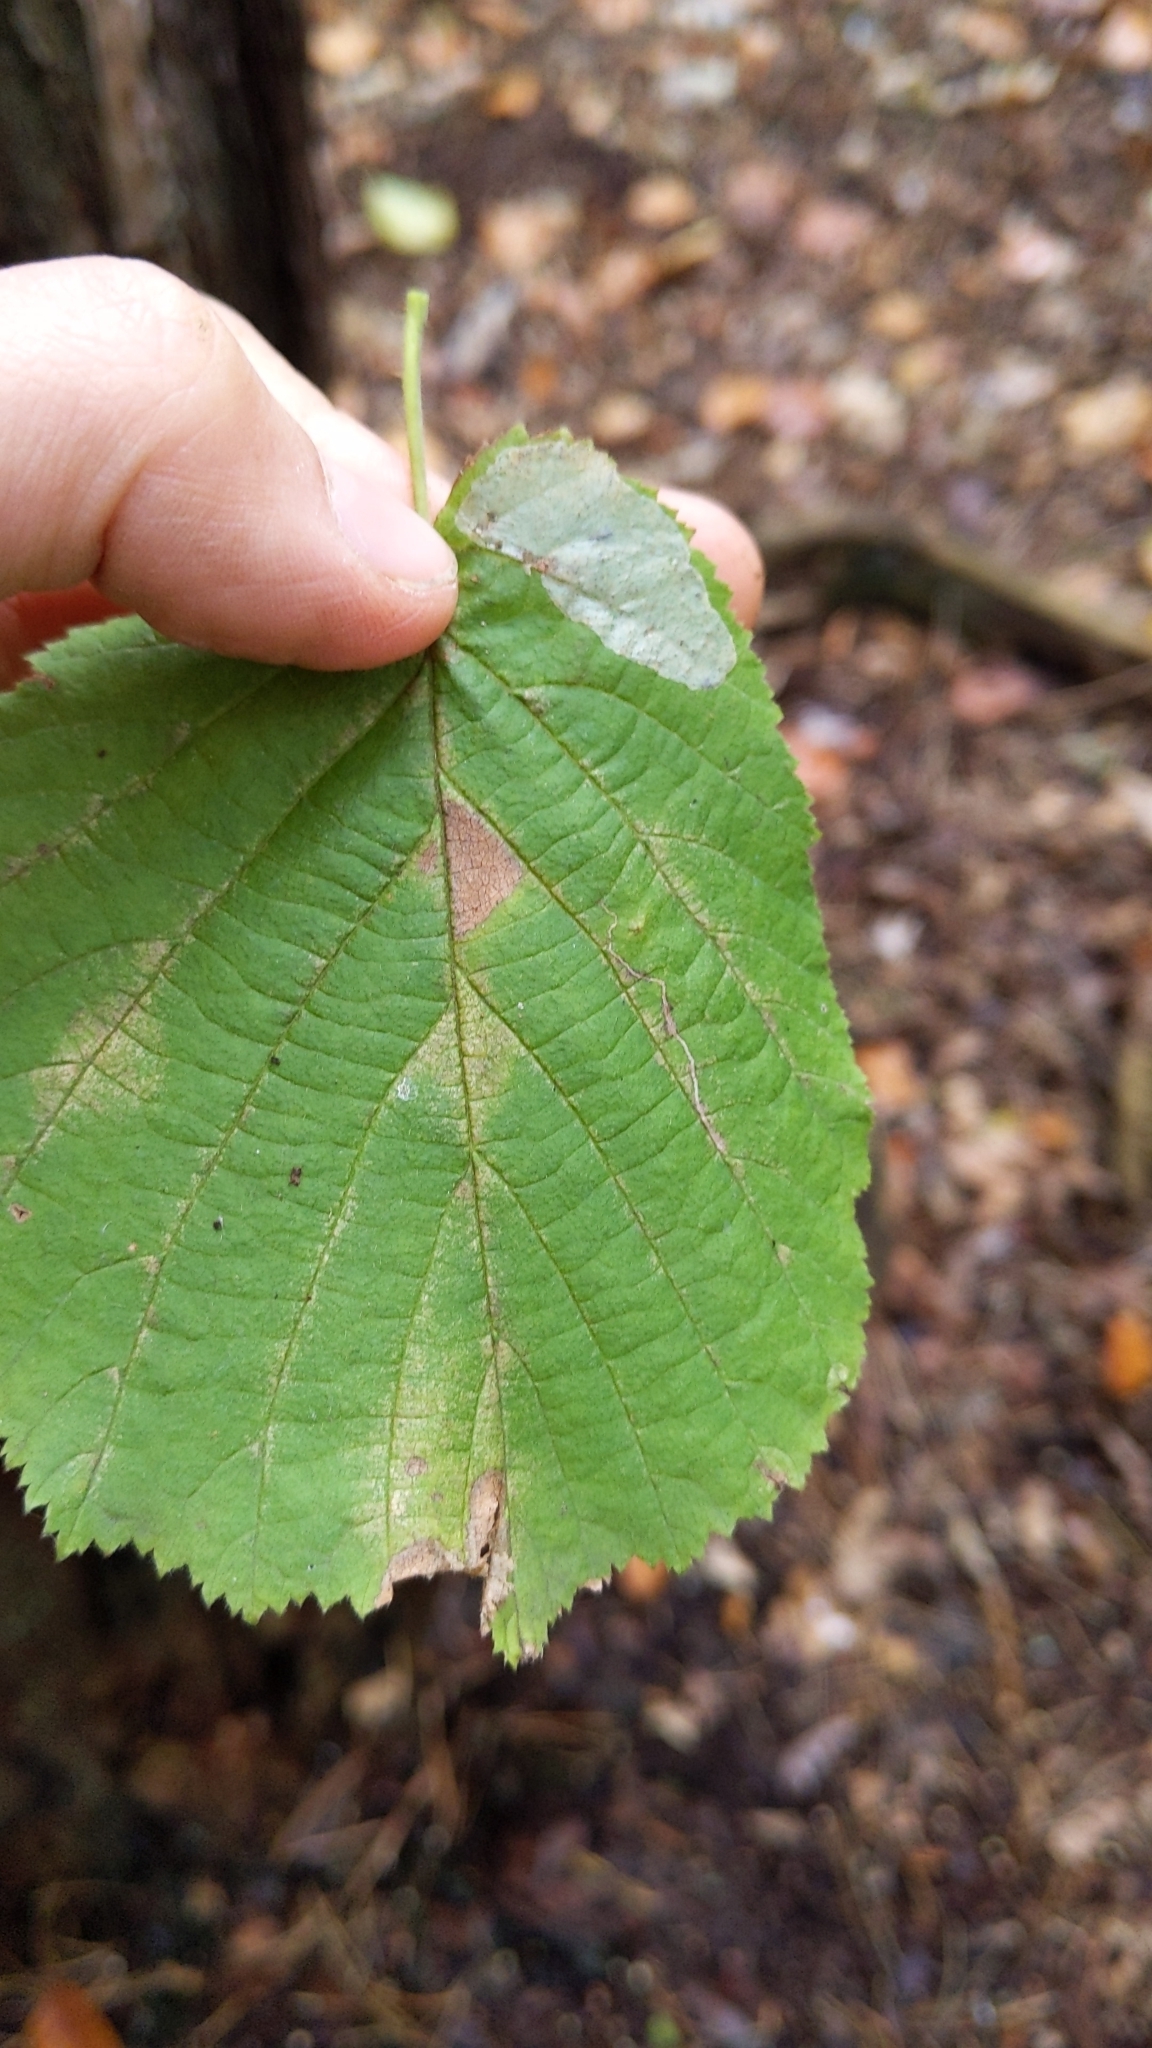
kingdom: Plantae
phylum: Tracheophyta
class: Magnoliopsida
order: Fagales
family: Betulaceae
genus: Corylus
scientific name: Corylus avellana
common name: European hazel
